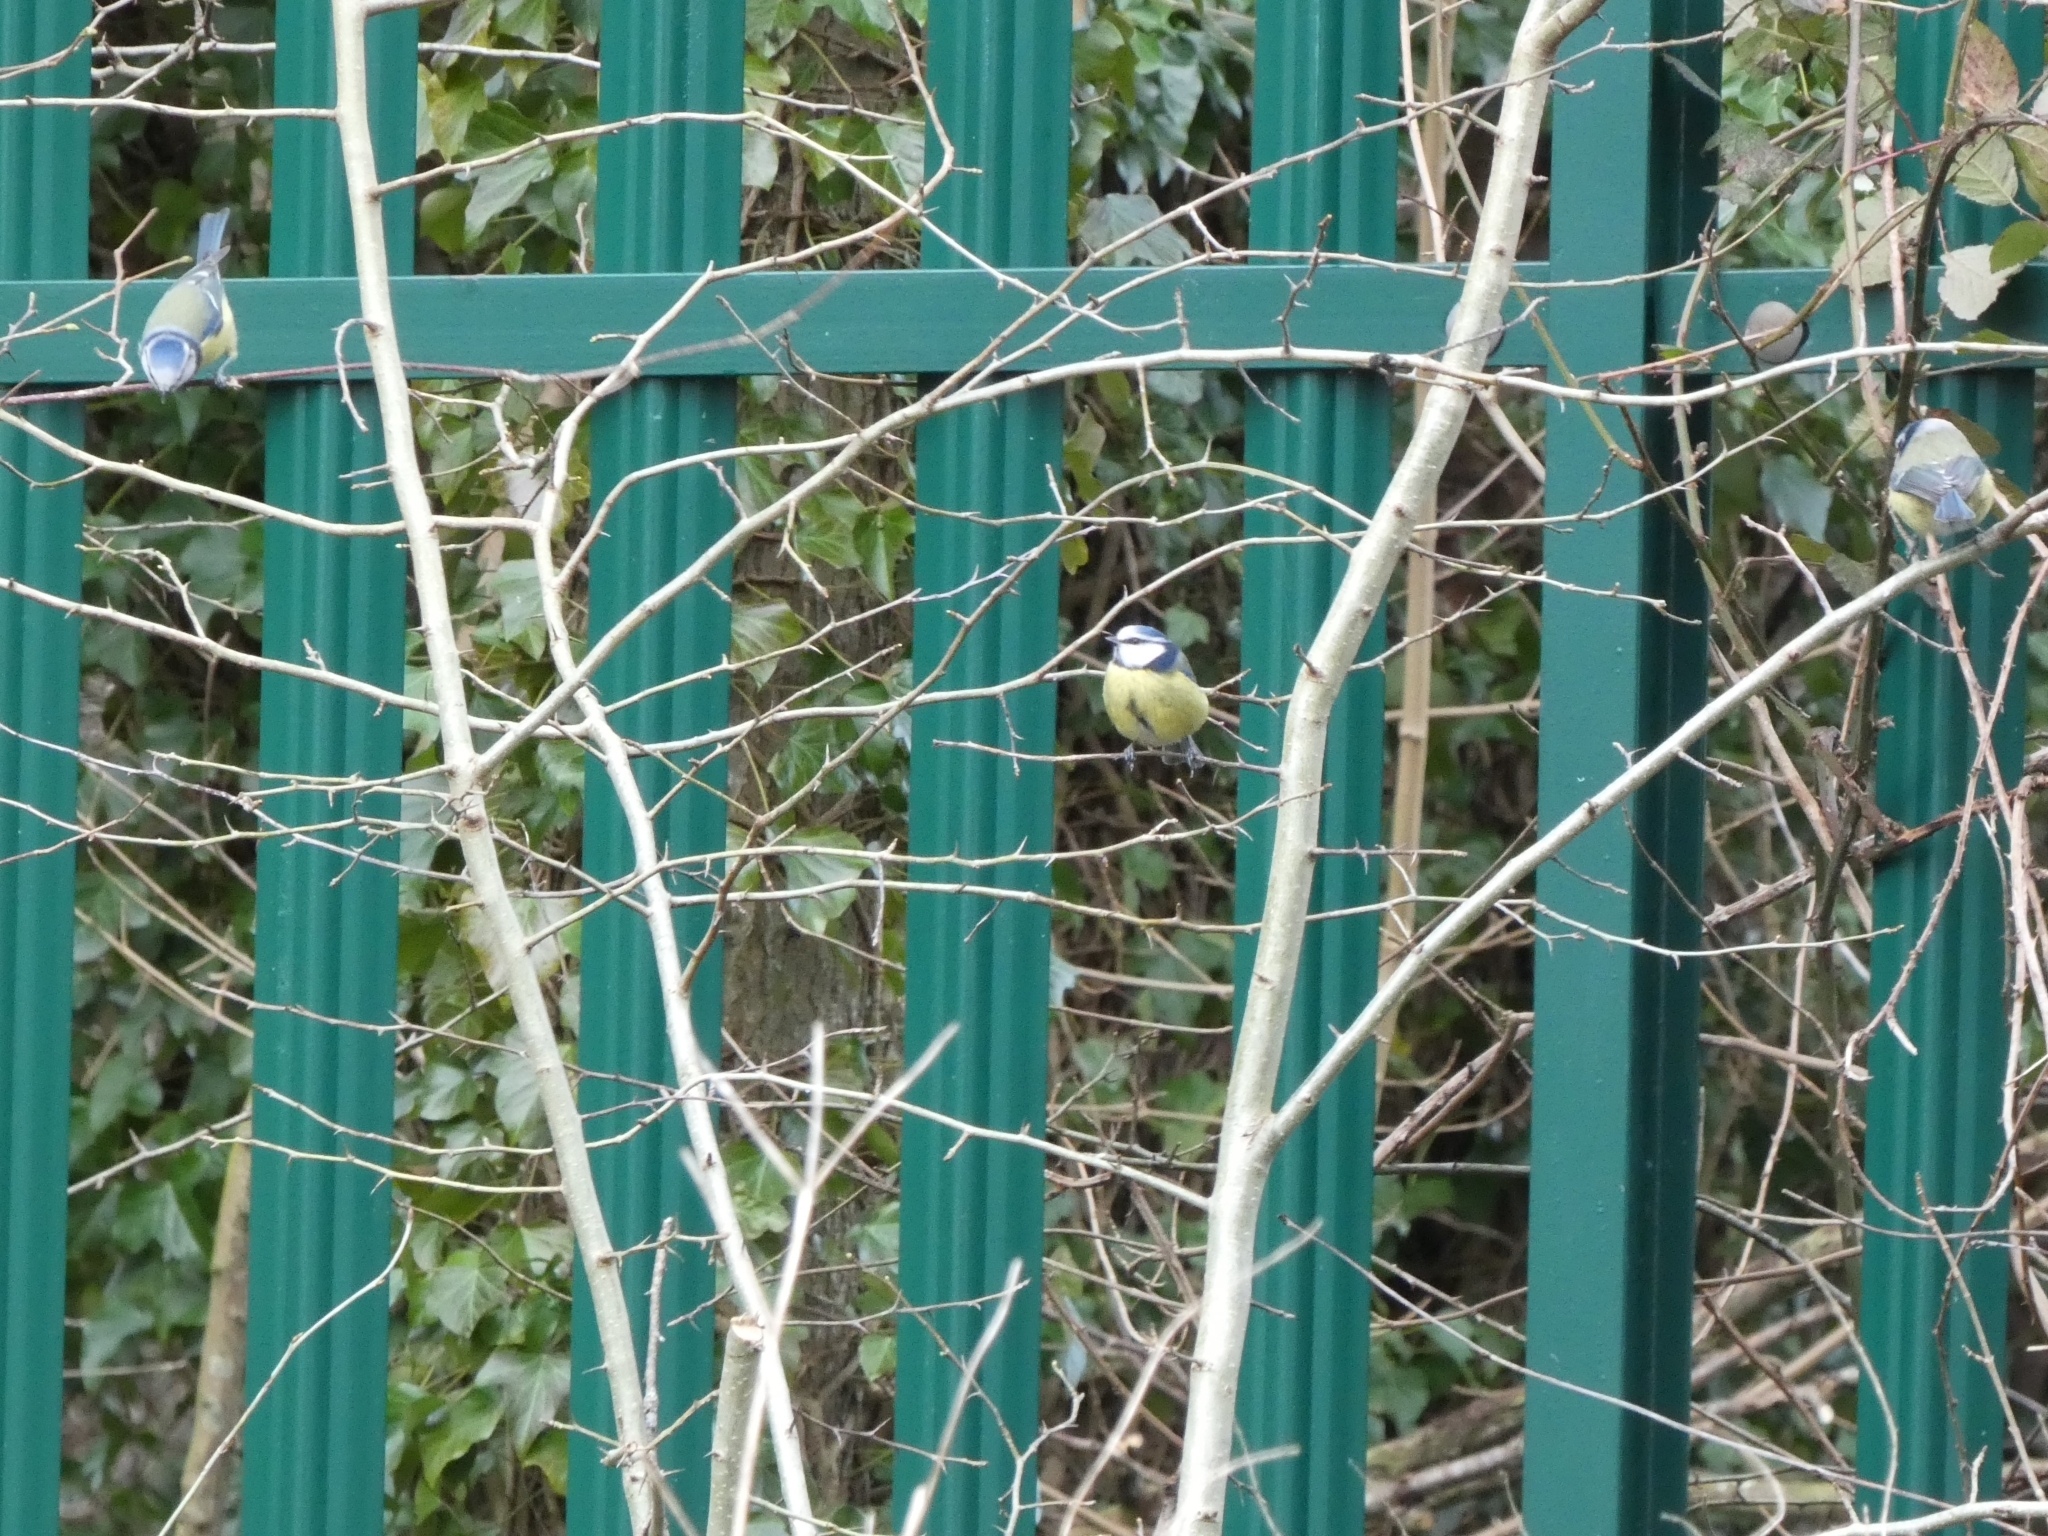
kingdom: Animalia
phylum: Chordata
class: Aves
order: Passeriformes
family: Paridae
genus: Cyanistes
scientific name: Cyanistes caeruleus
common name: Eurasian blue tit
